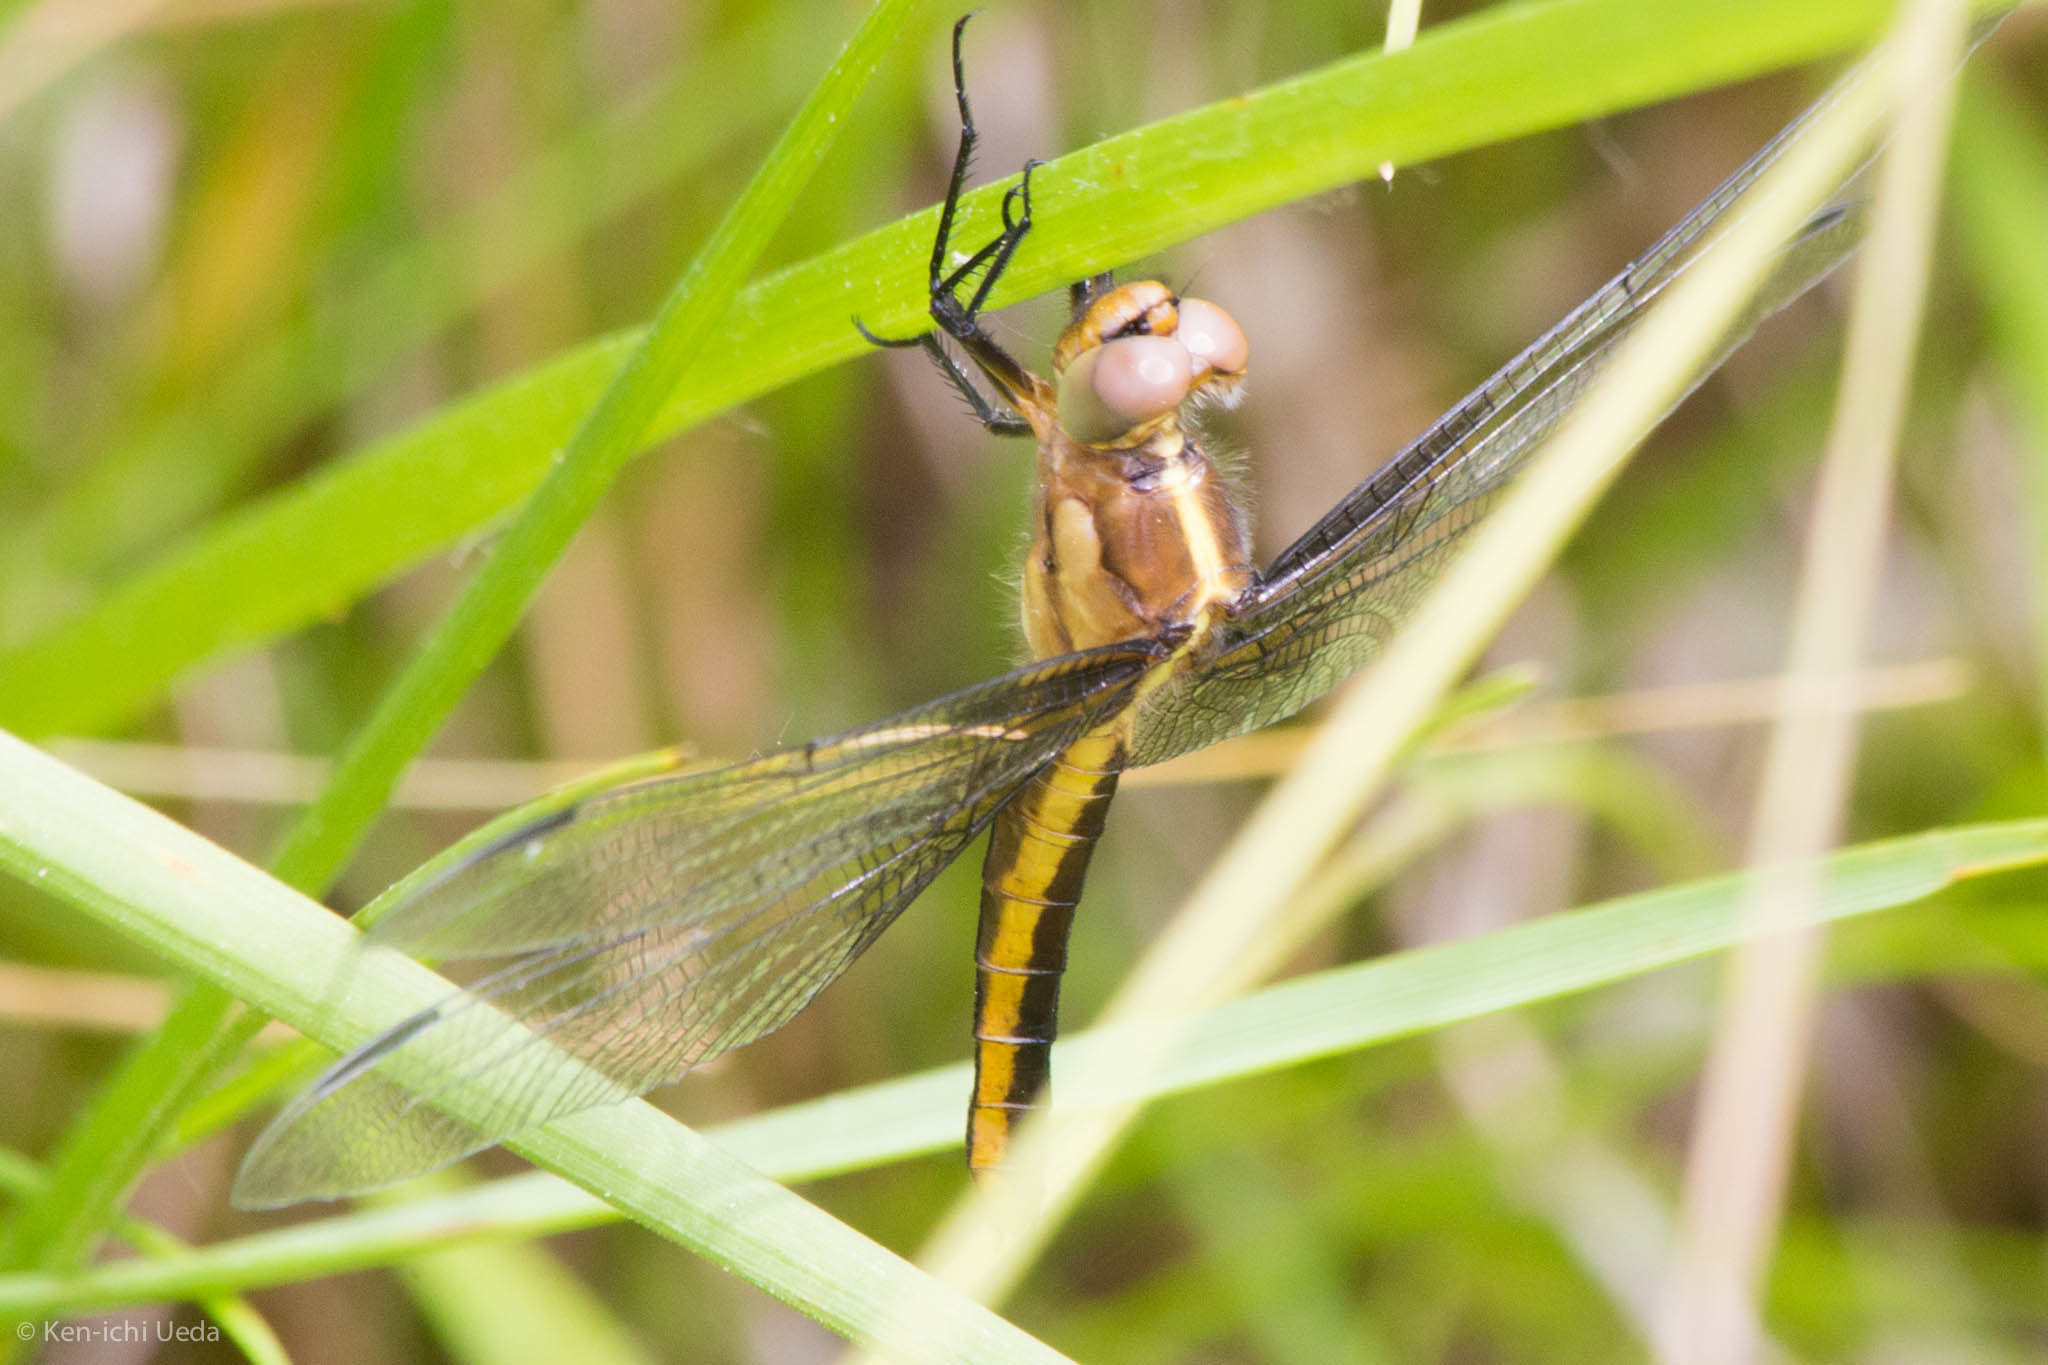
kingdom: Animalia
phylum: Arthropoda
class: Insecta
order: Odonata
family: Libellulidae
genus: Libellula
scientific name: Libellula luctuosa
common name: Widow skimmer
